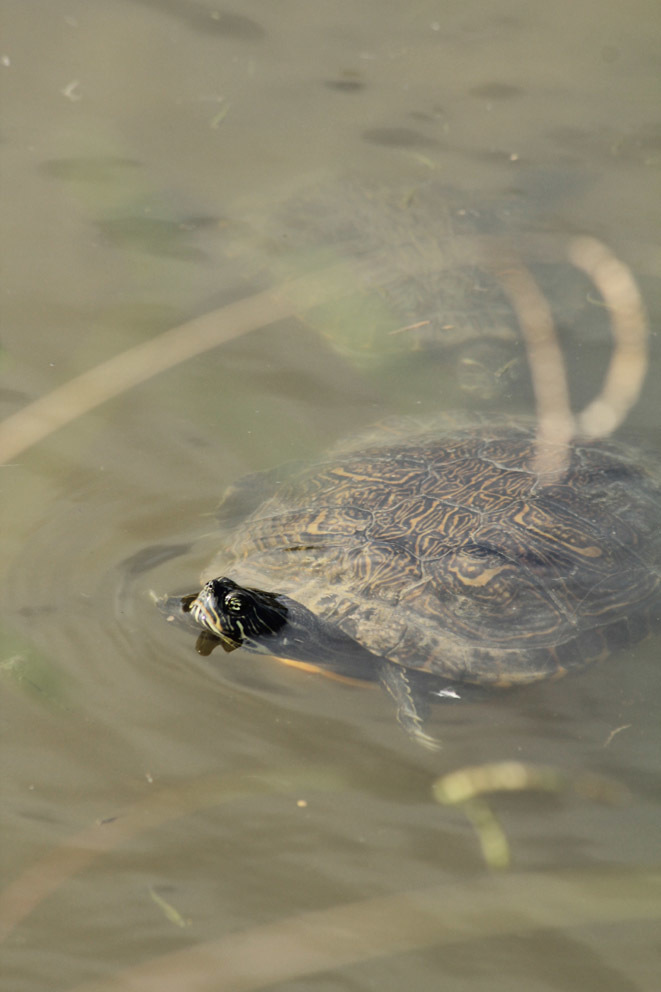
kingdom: Animalia
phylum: Chordata
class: Testudines
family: Emydidae
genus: Pseudemys
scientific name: Pseudemys concinna
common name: Eastern river cooter
